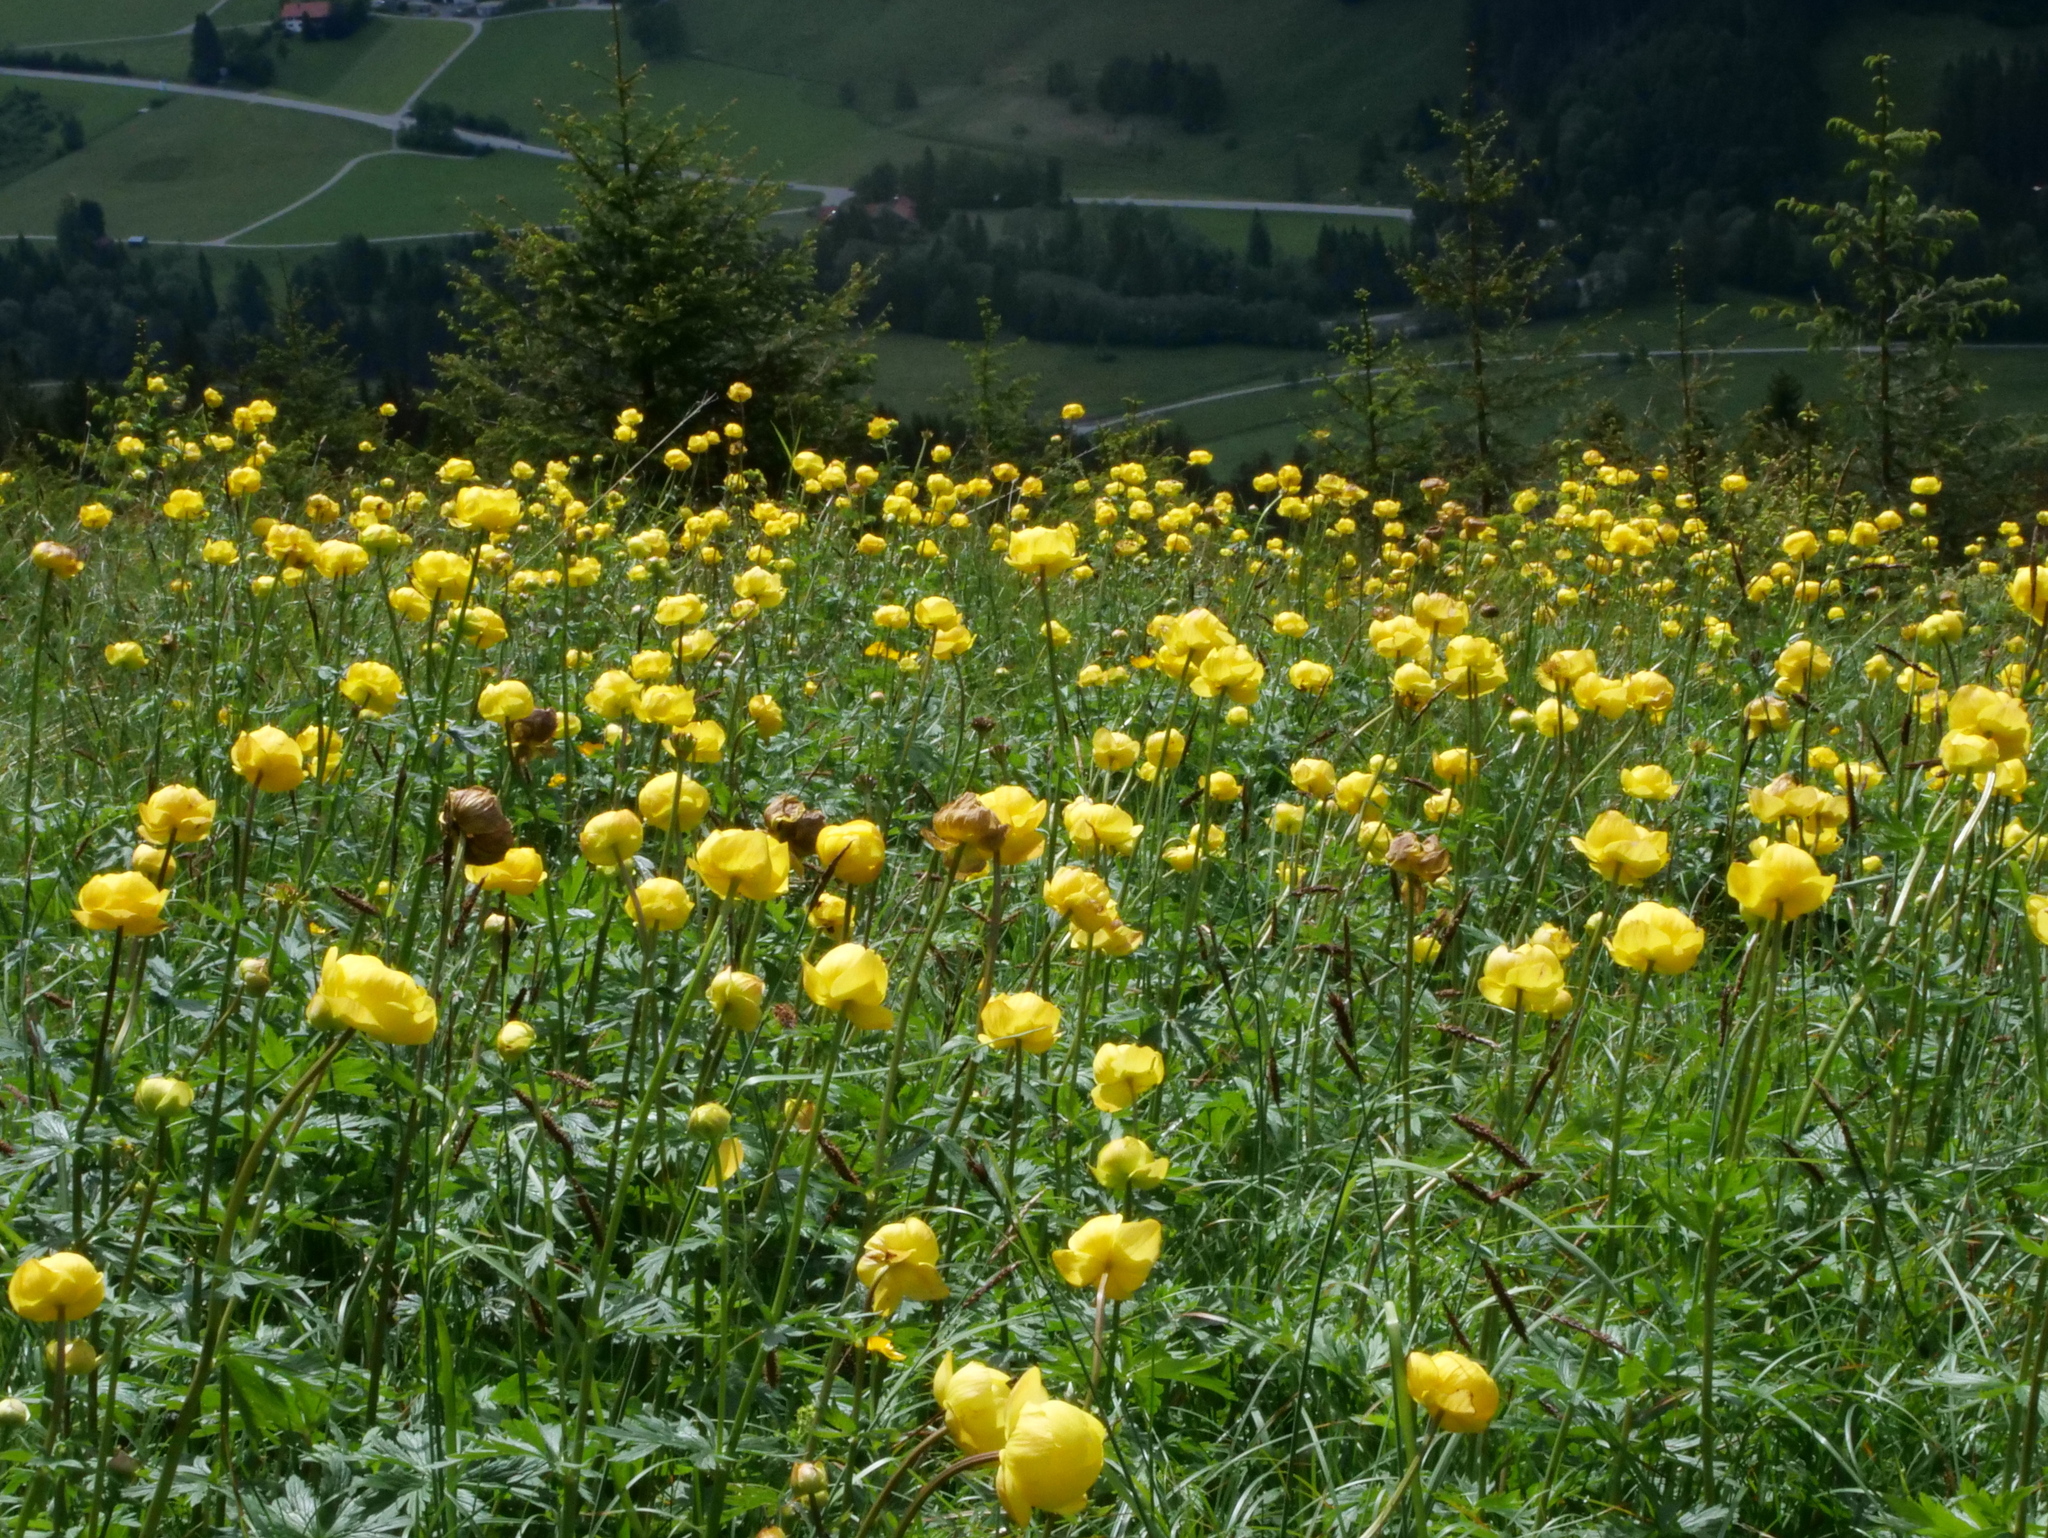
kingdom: Plantae
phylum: Tracheophyta
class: Magnoliopsida
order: Ranunculales
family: Ranunculaceae
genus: Trollius
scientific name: Trollius europaeus
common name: European globeflower
